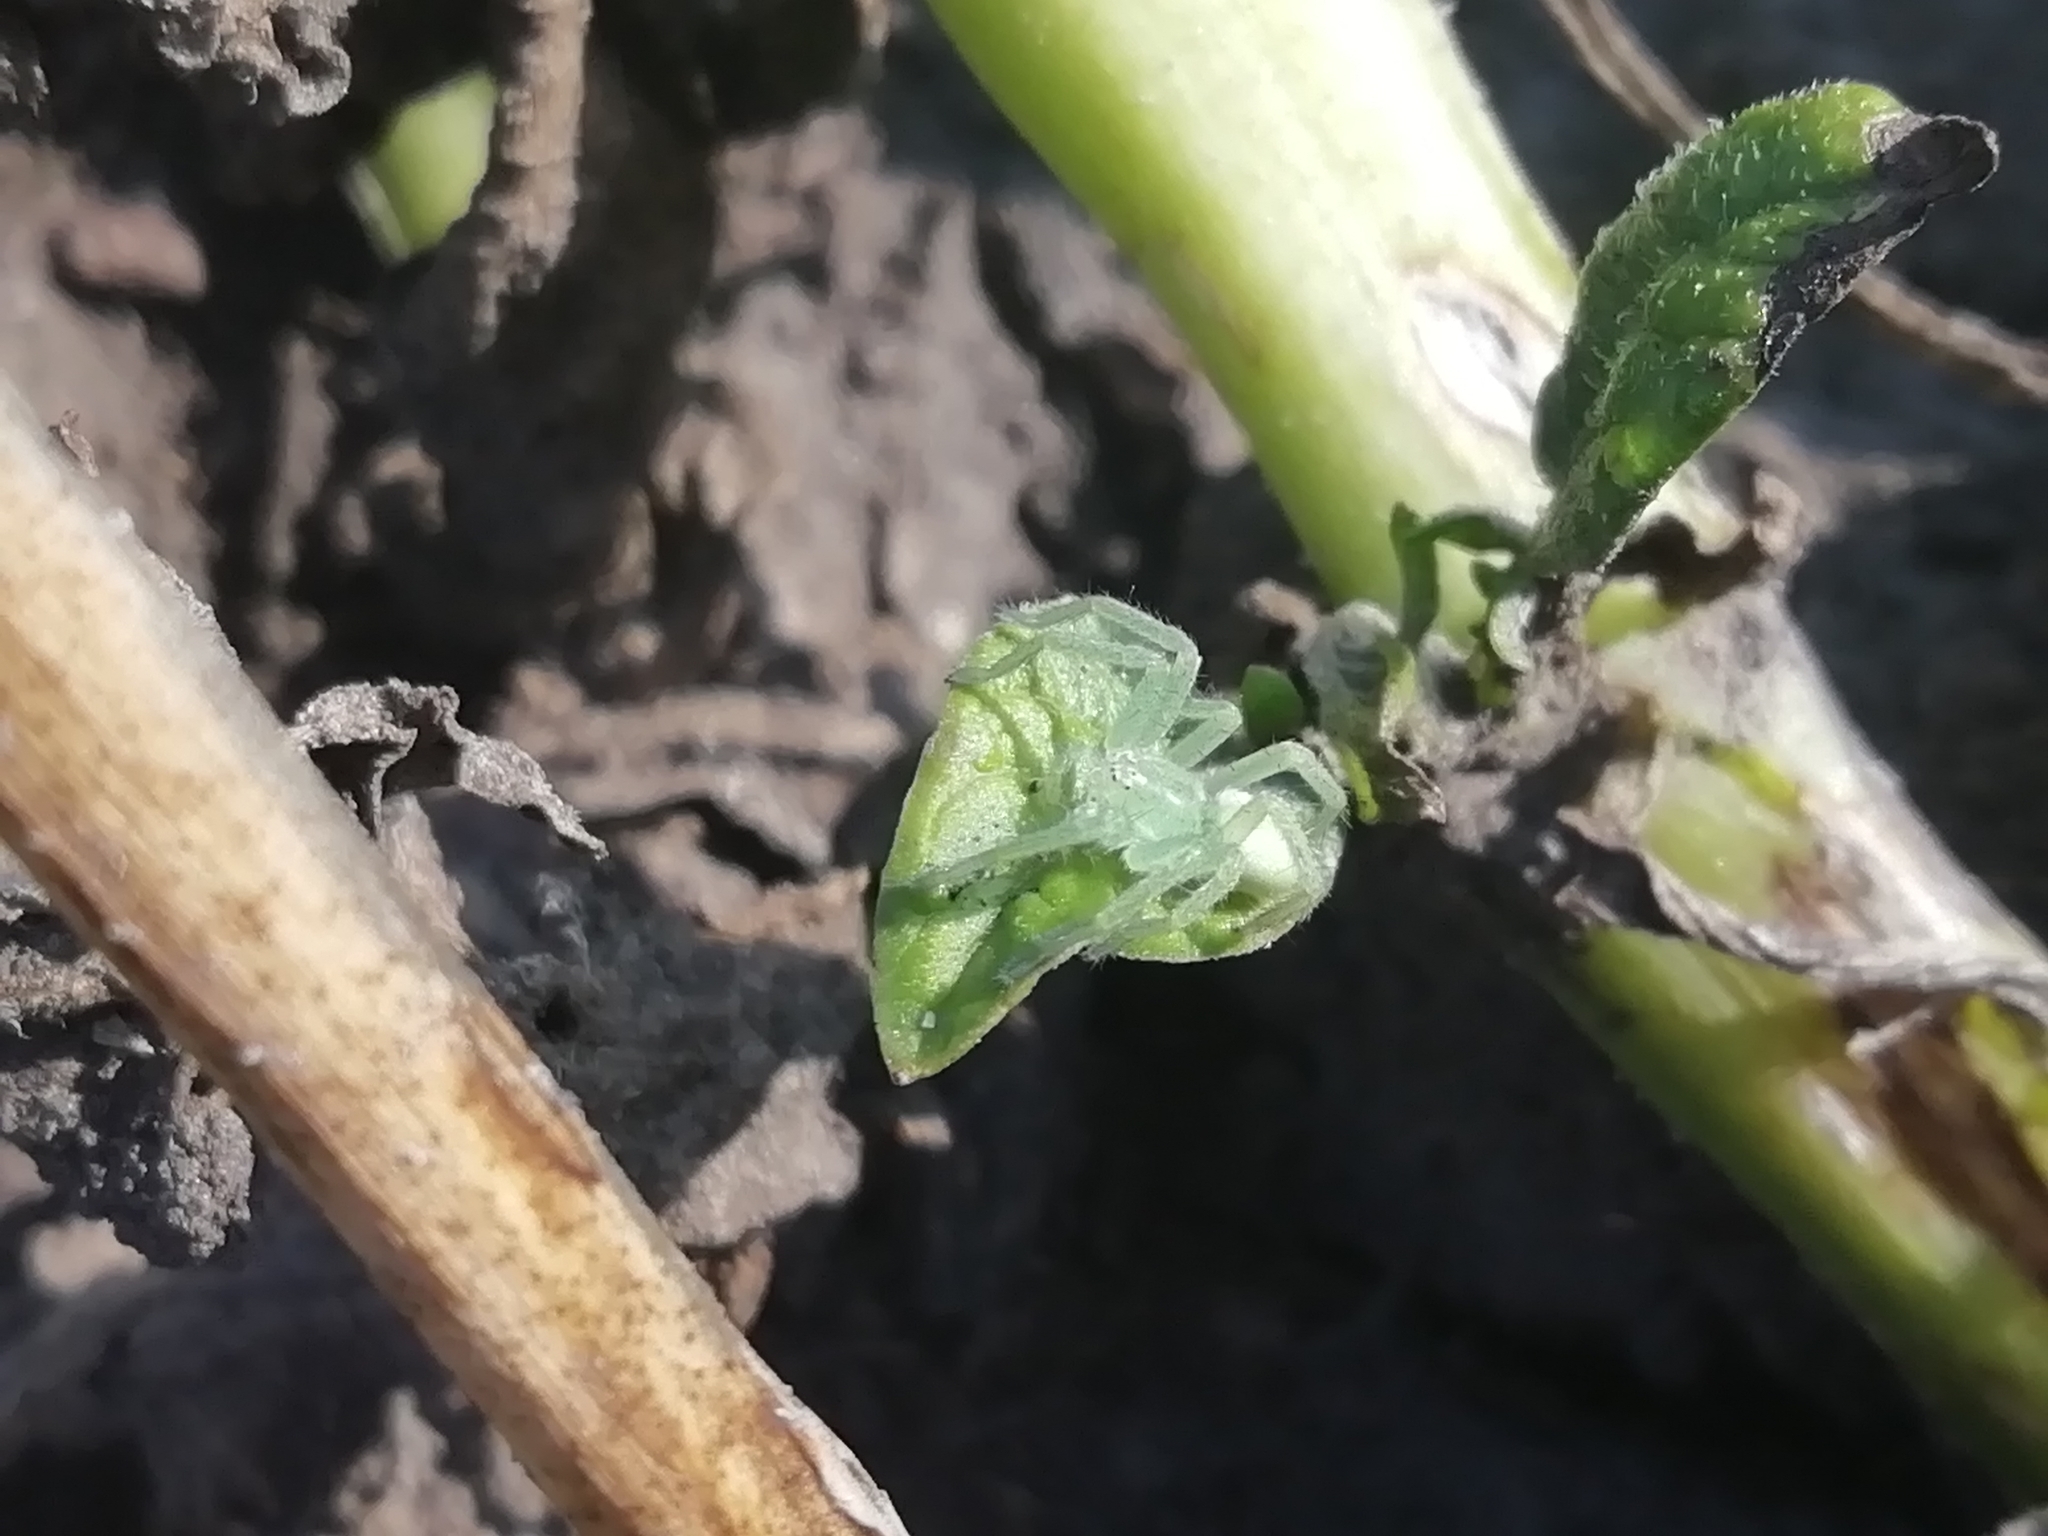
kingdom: Animalia
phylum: Arthropoda
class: Arachnida
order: Araneae
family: Sparassidae
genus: Micrommata
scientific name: Micrommata virescens
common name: Green spider
